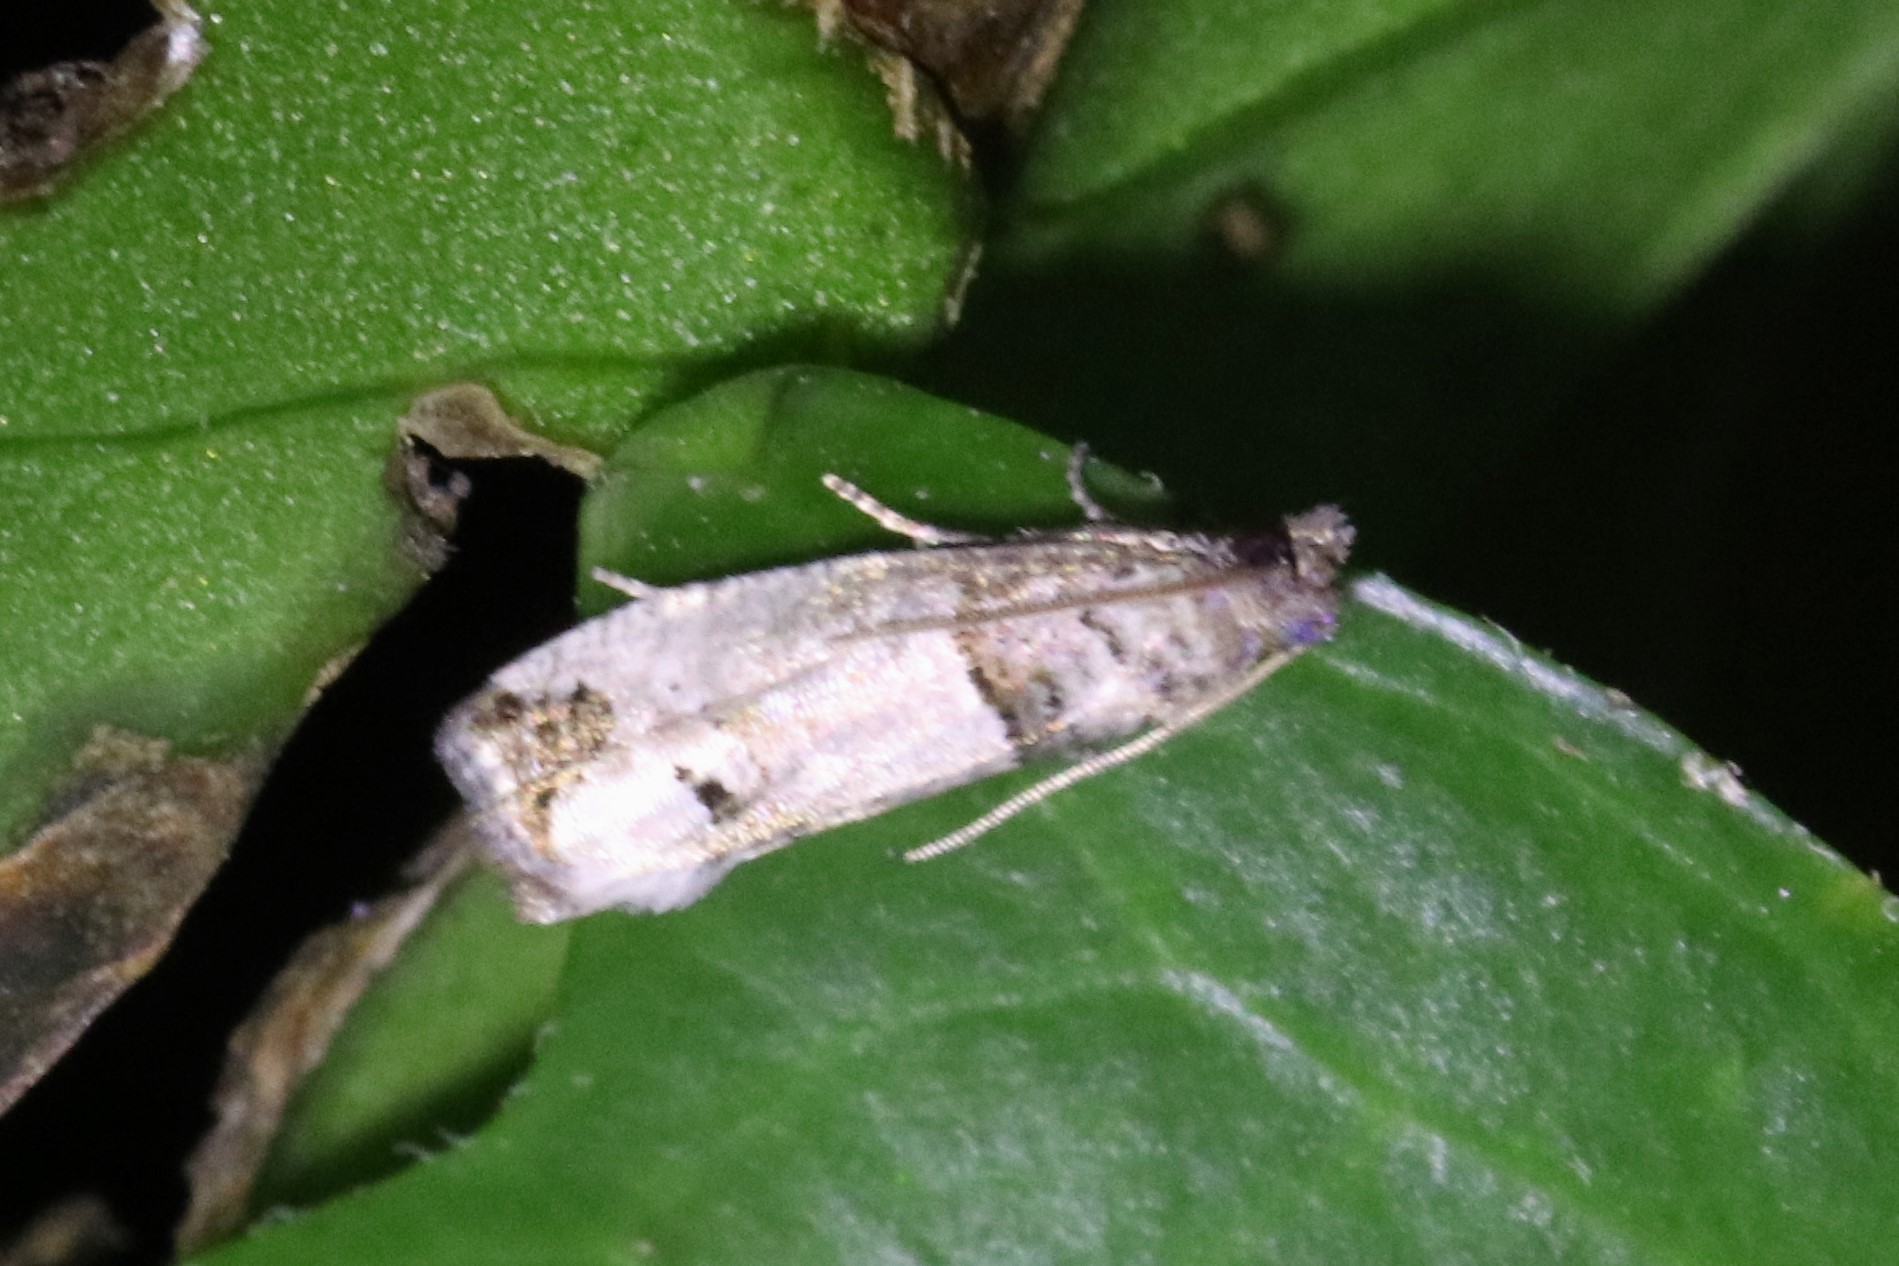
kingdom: Animalia
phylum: Arthropoda
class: Insecta
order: Lepidoptera
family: Tortricidae
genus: Notocelia
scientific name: Notocelia culminana
